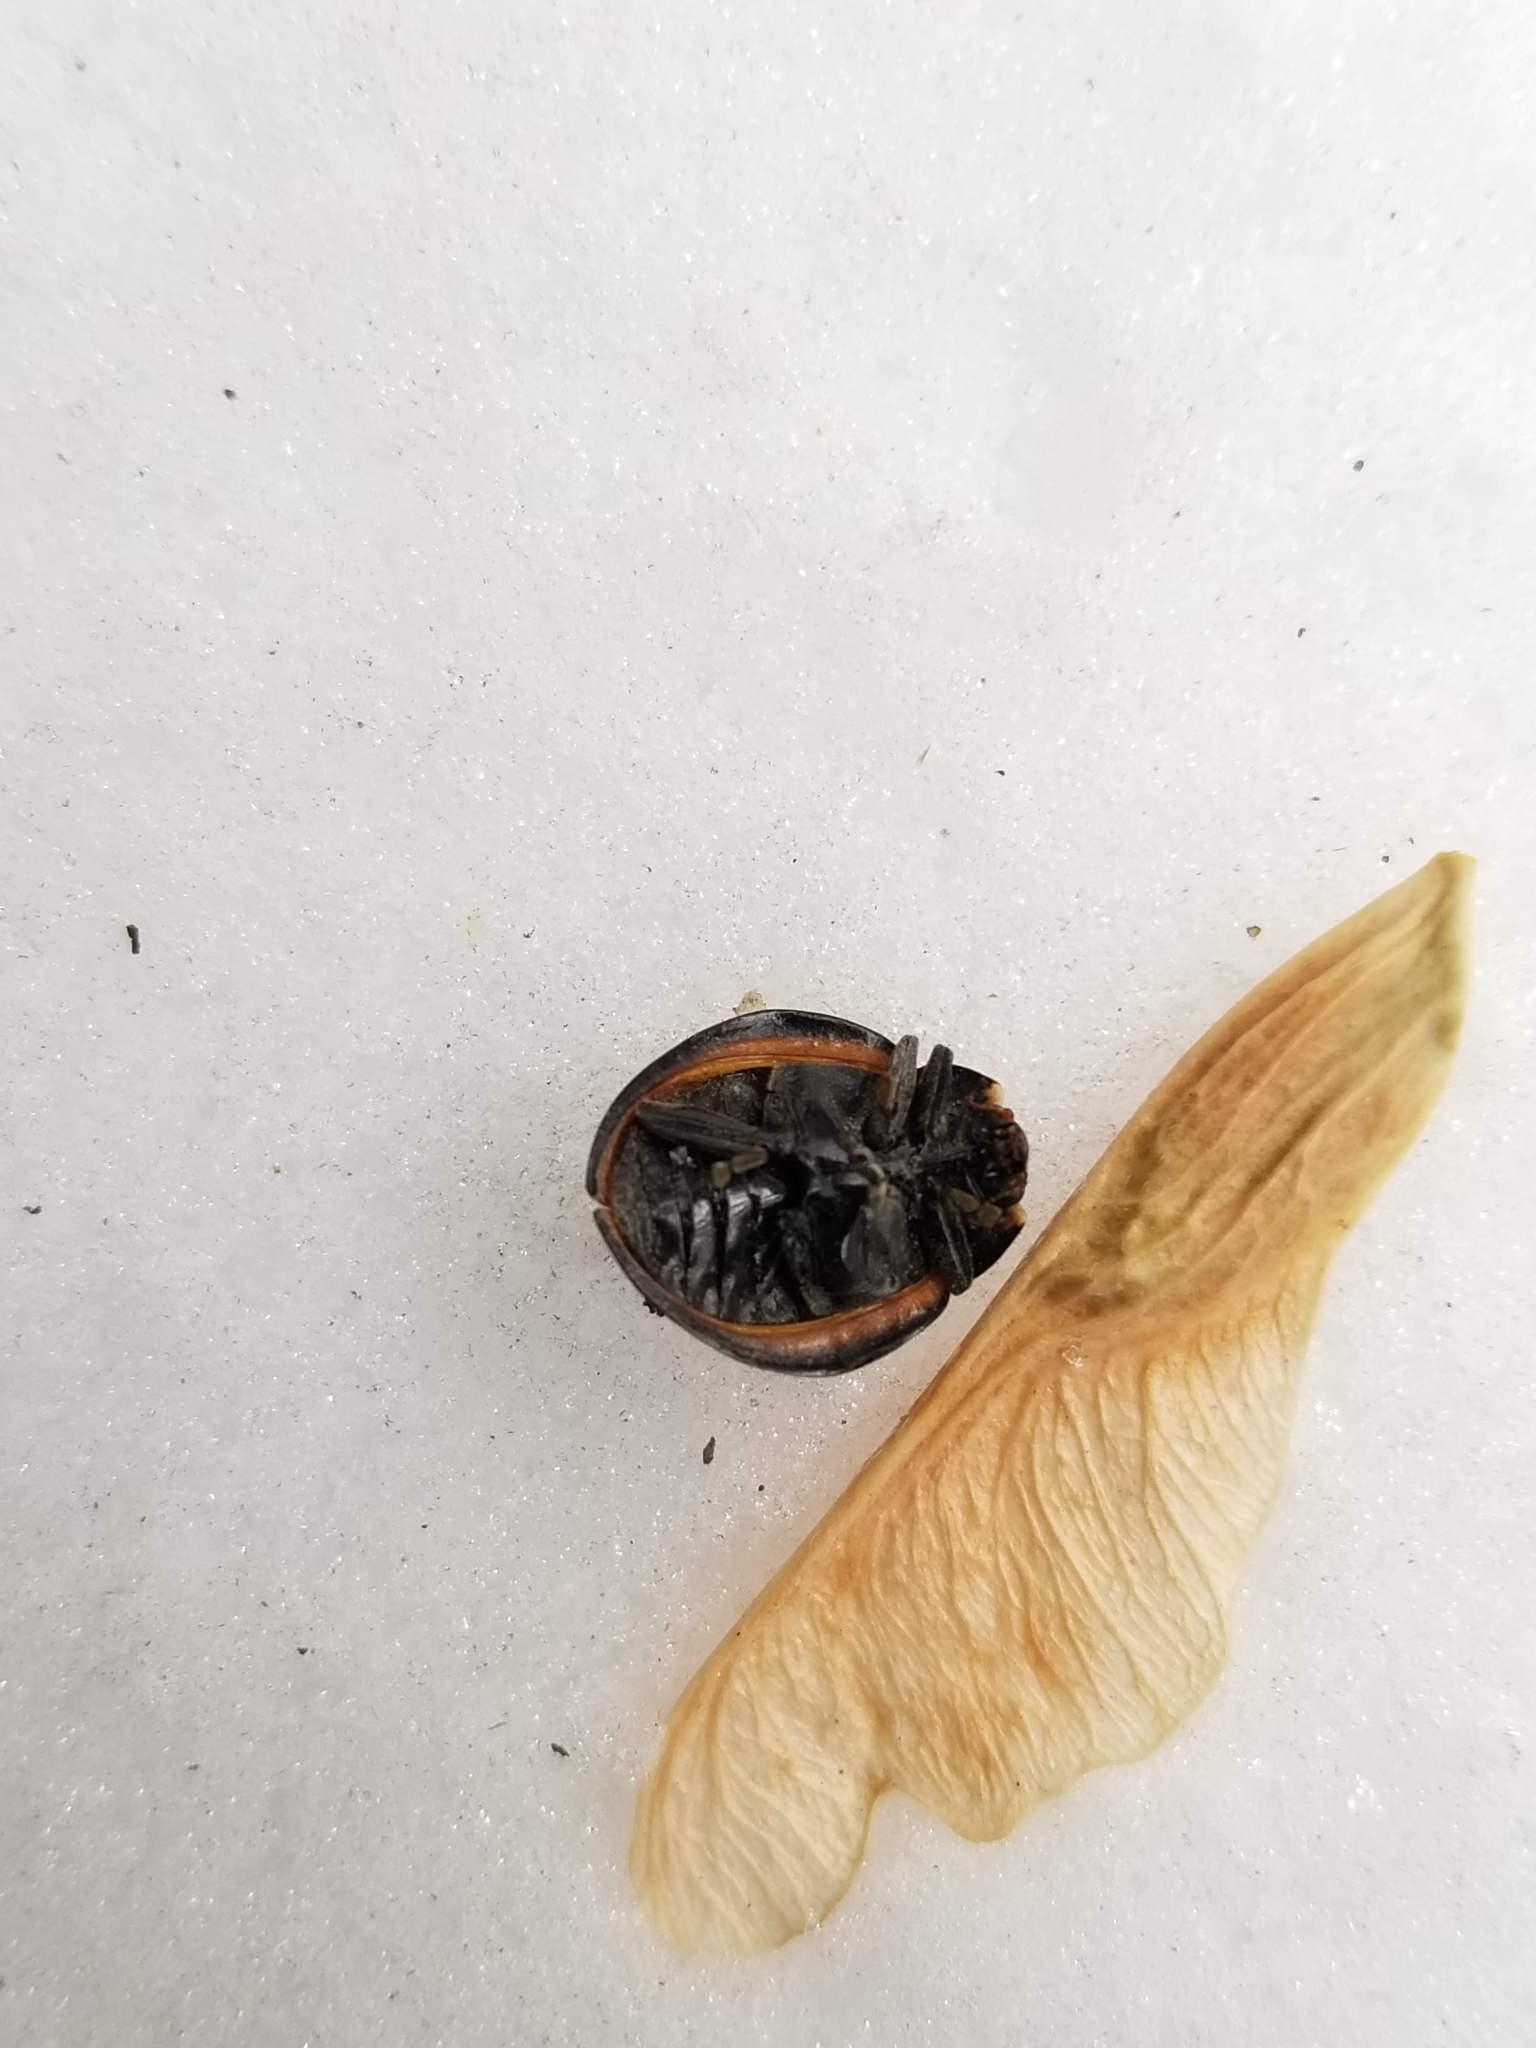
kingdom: Animalia
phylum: Arthropoda
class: Insecta
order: Coleoptera
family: Coccinellidae
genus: Anatis
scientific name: Anatis lecontei
